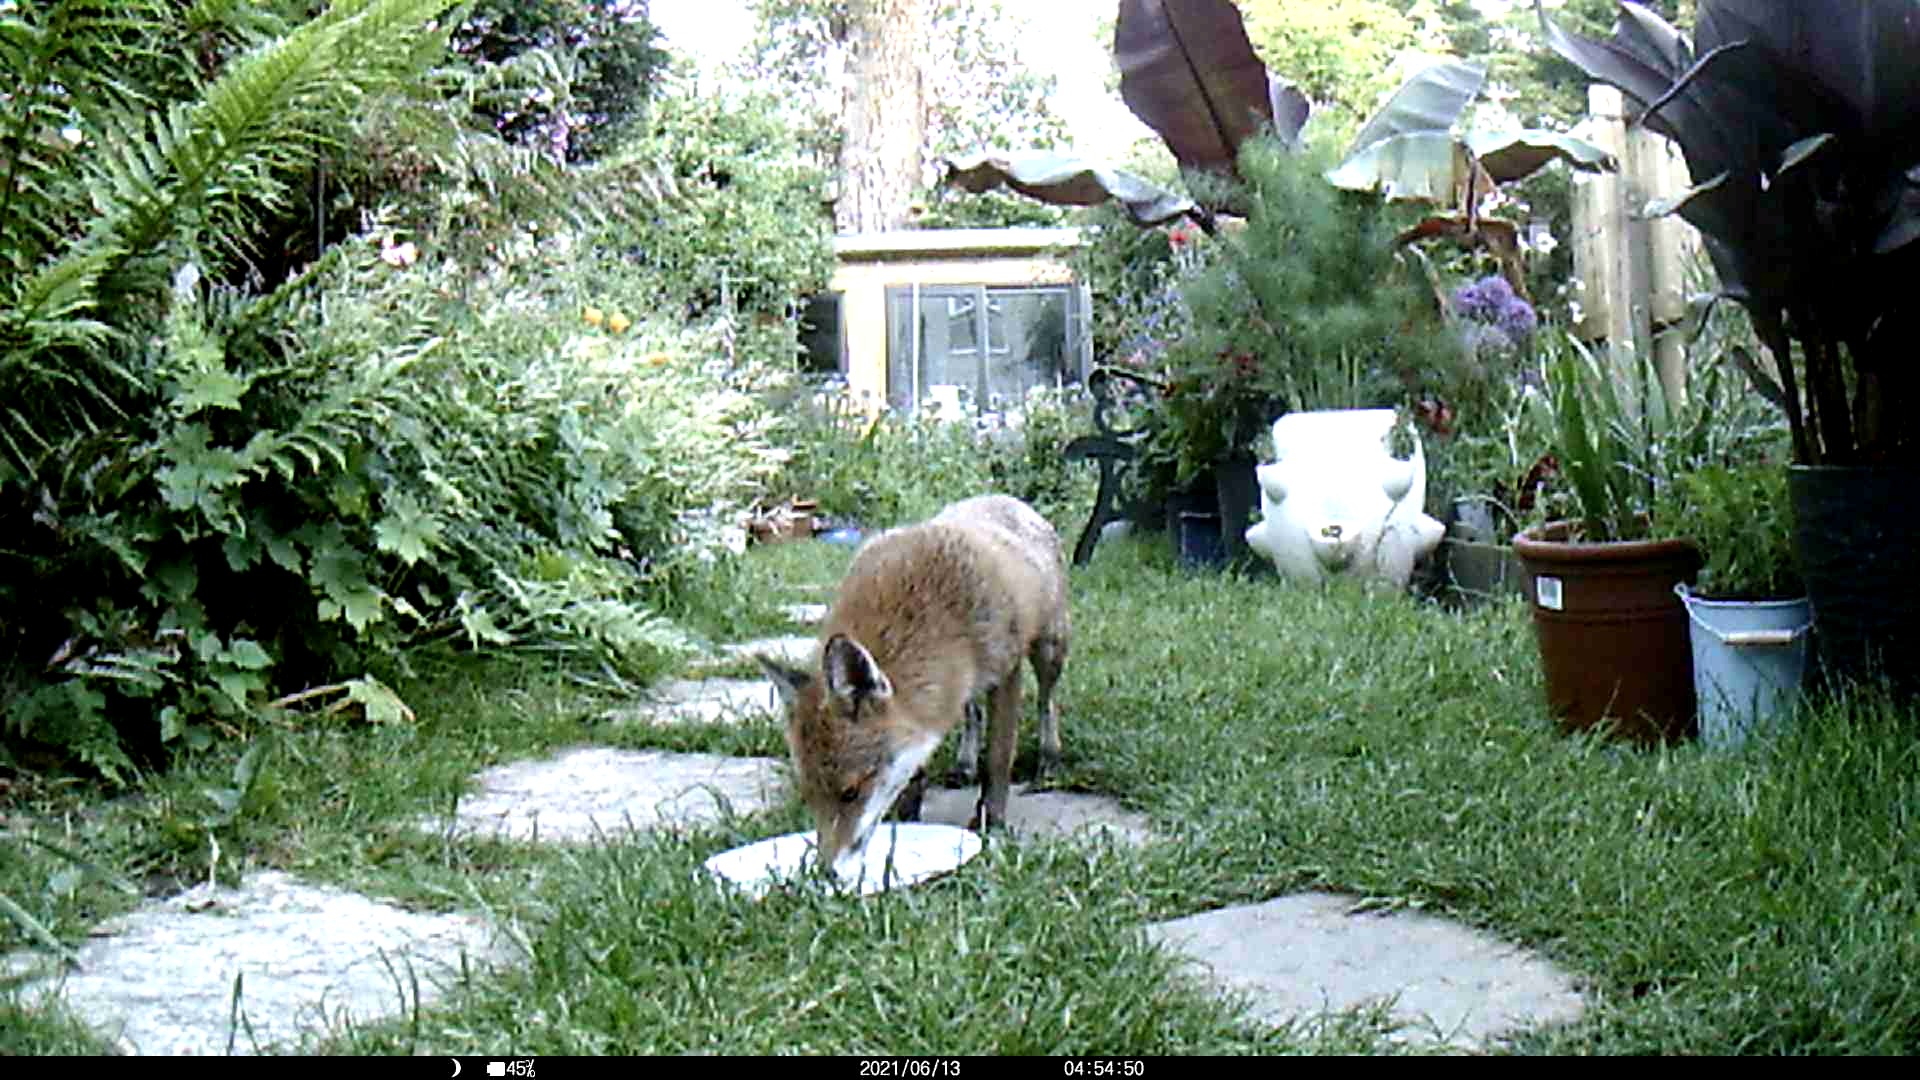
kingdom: Animalia
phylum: Chordata
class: Mammalia
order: Carnivora
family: Canidae
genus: Vulpes
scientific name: Vulpes vulpes
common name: Red fox
